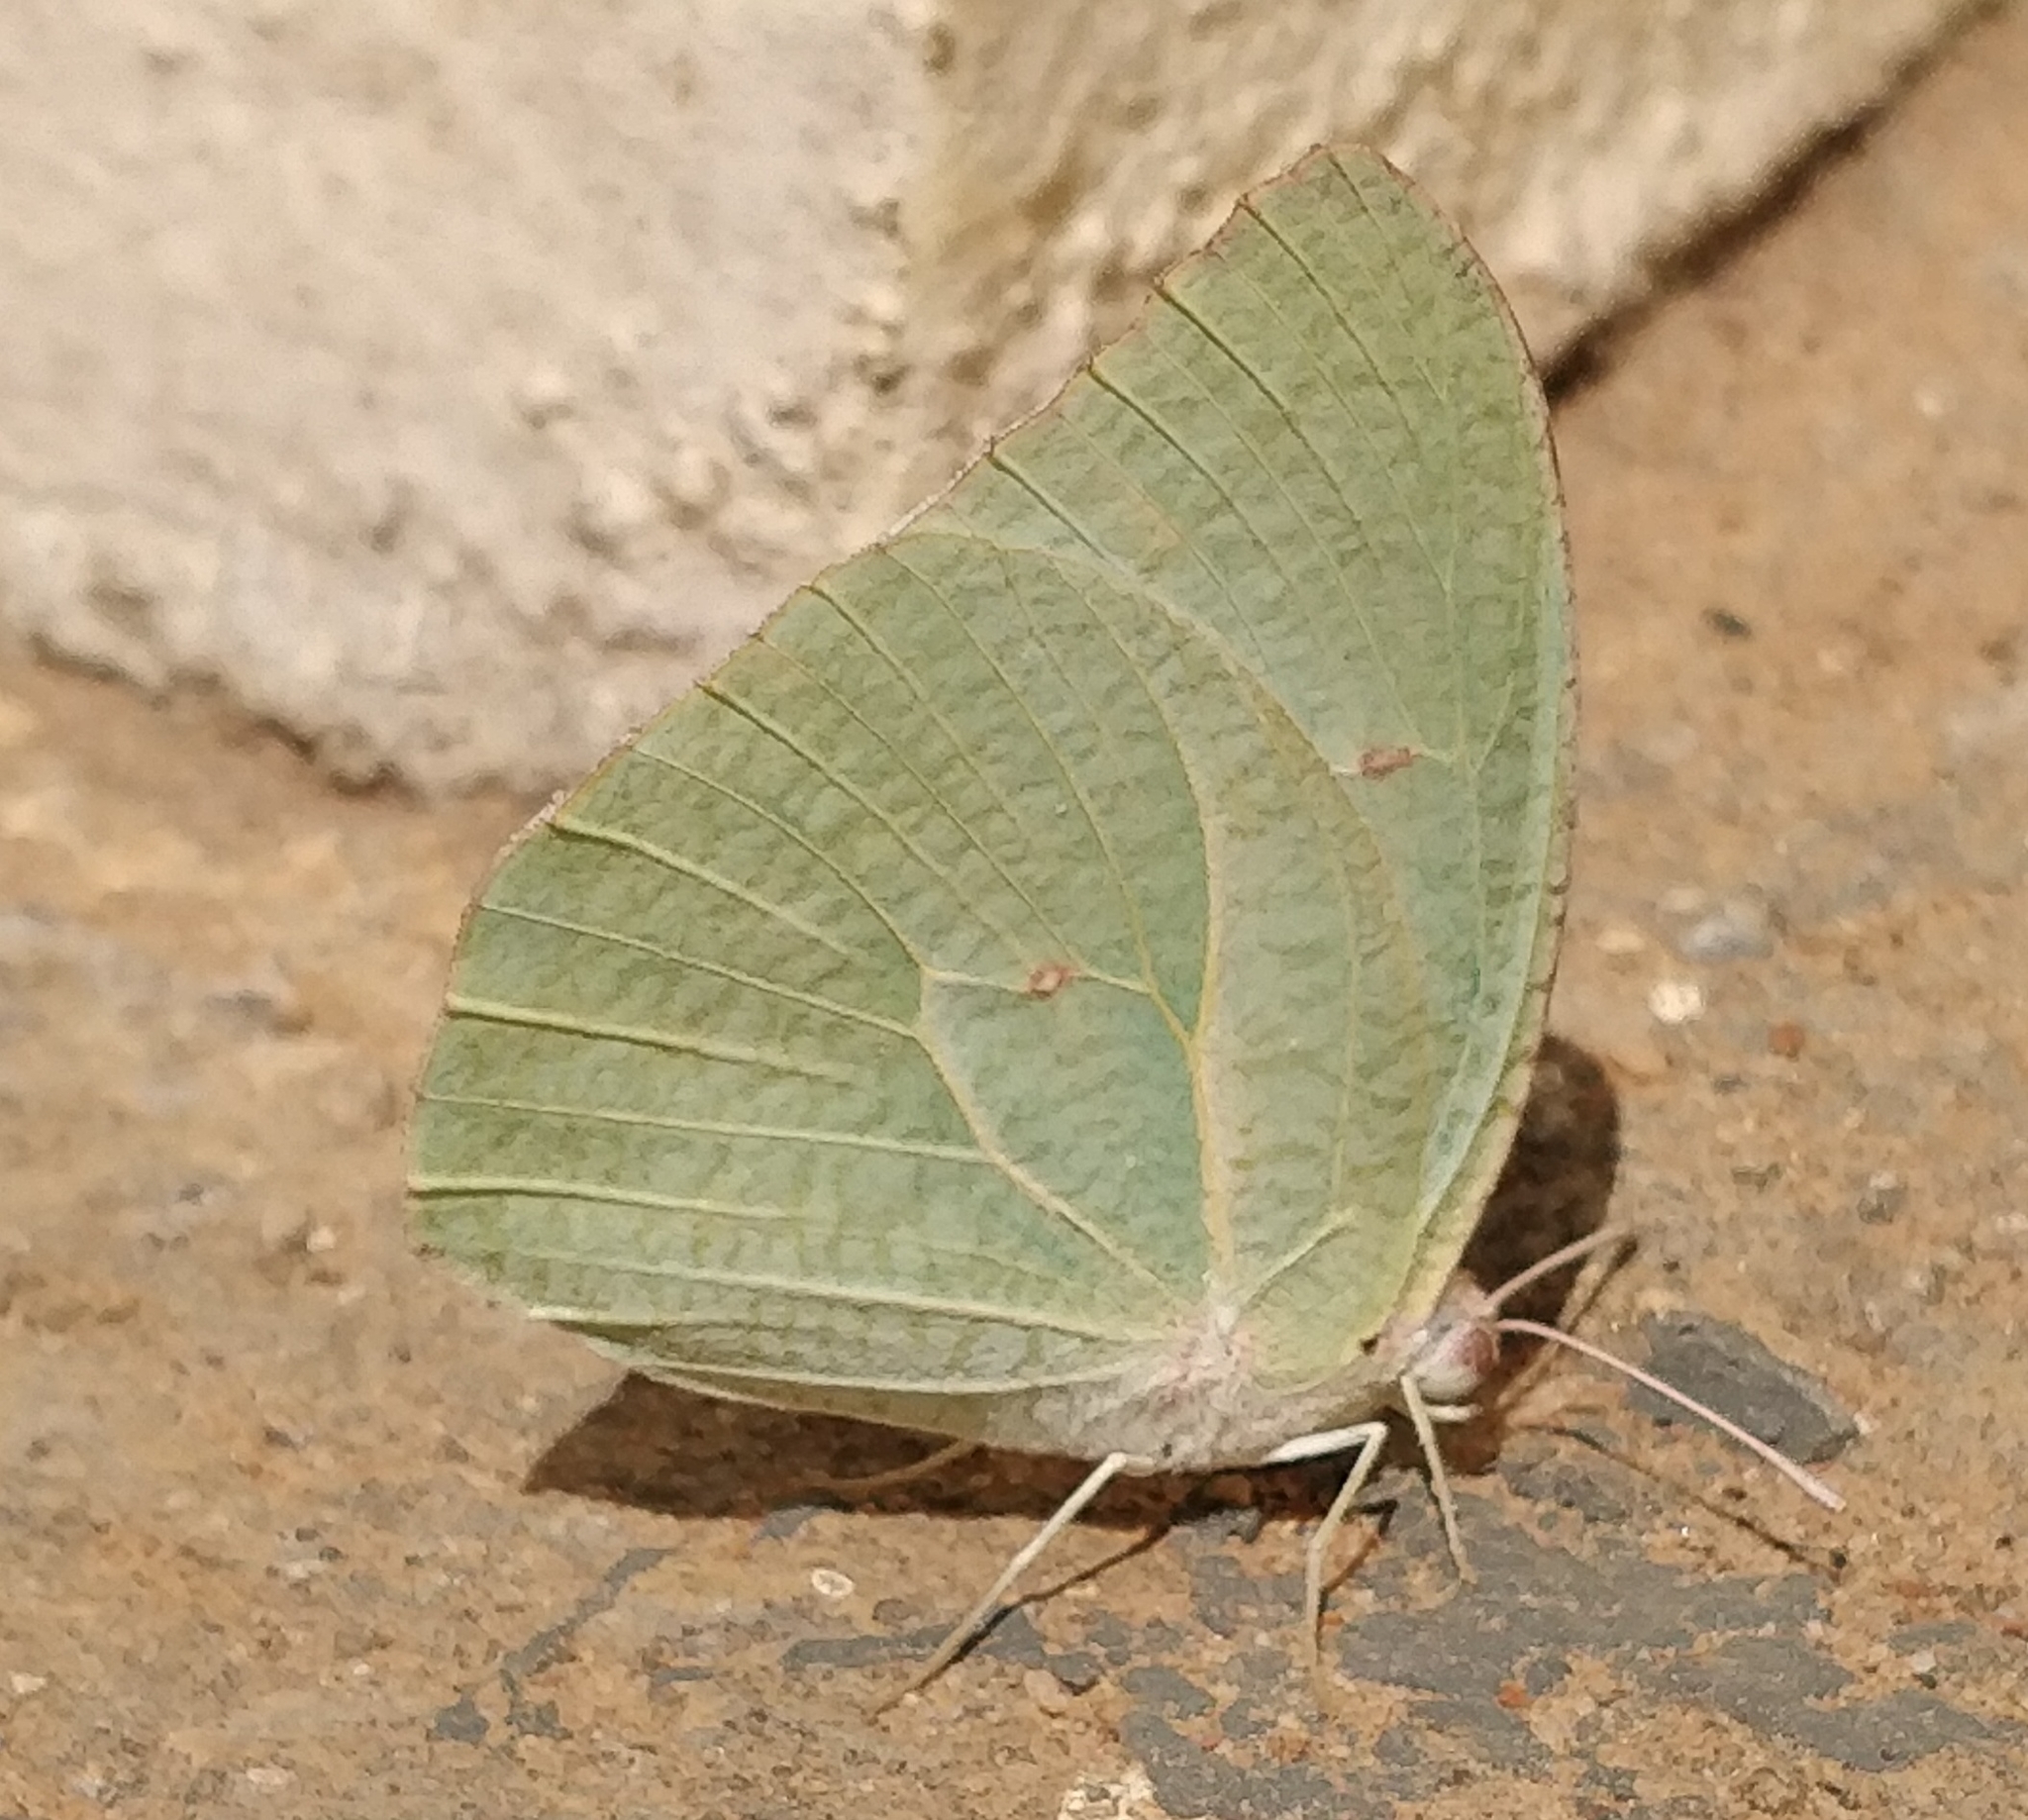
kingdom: Animalia
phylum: Arthropoda
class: Insecta
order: Lepidoptera
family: Pieridae
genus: Catopsilia
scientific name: Catopsilia pyranthe
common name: Mottled emigrant
